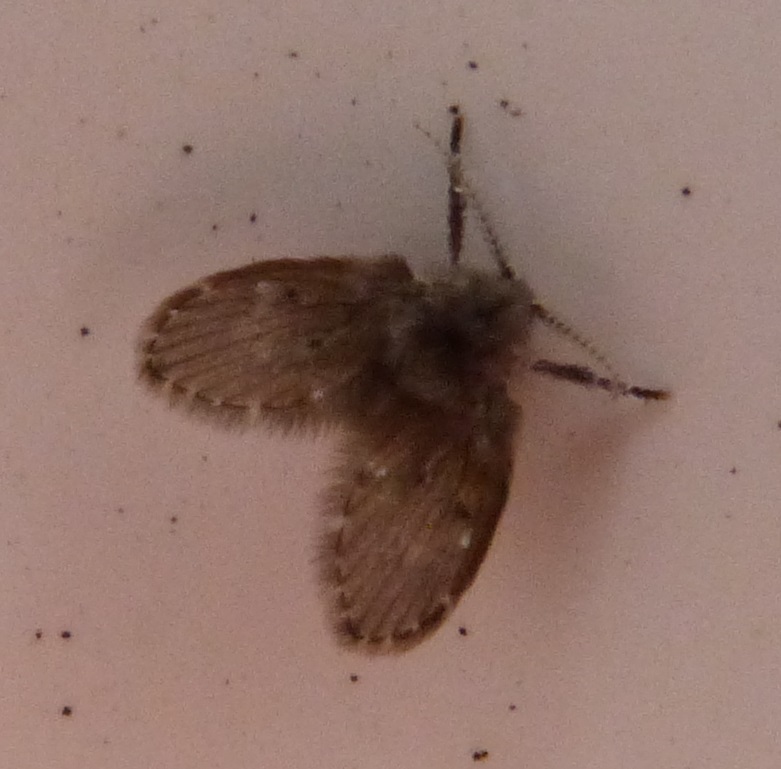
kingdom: Animalia
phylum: Arthropoda
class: Insecta
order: Diptera
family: Psychodidae
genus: Clogmia
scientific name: Clogmia albipunctatus
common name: White-spotted moth fly
